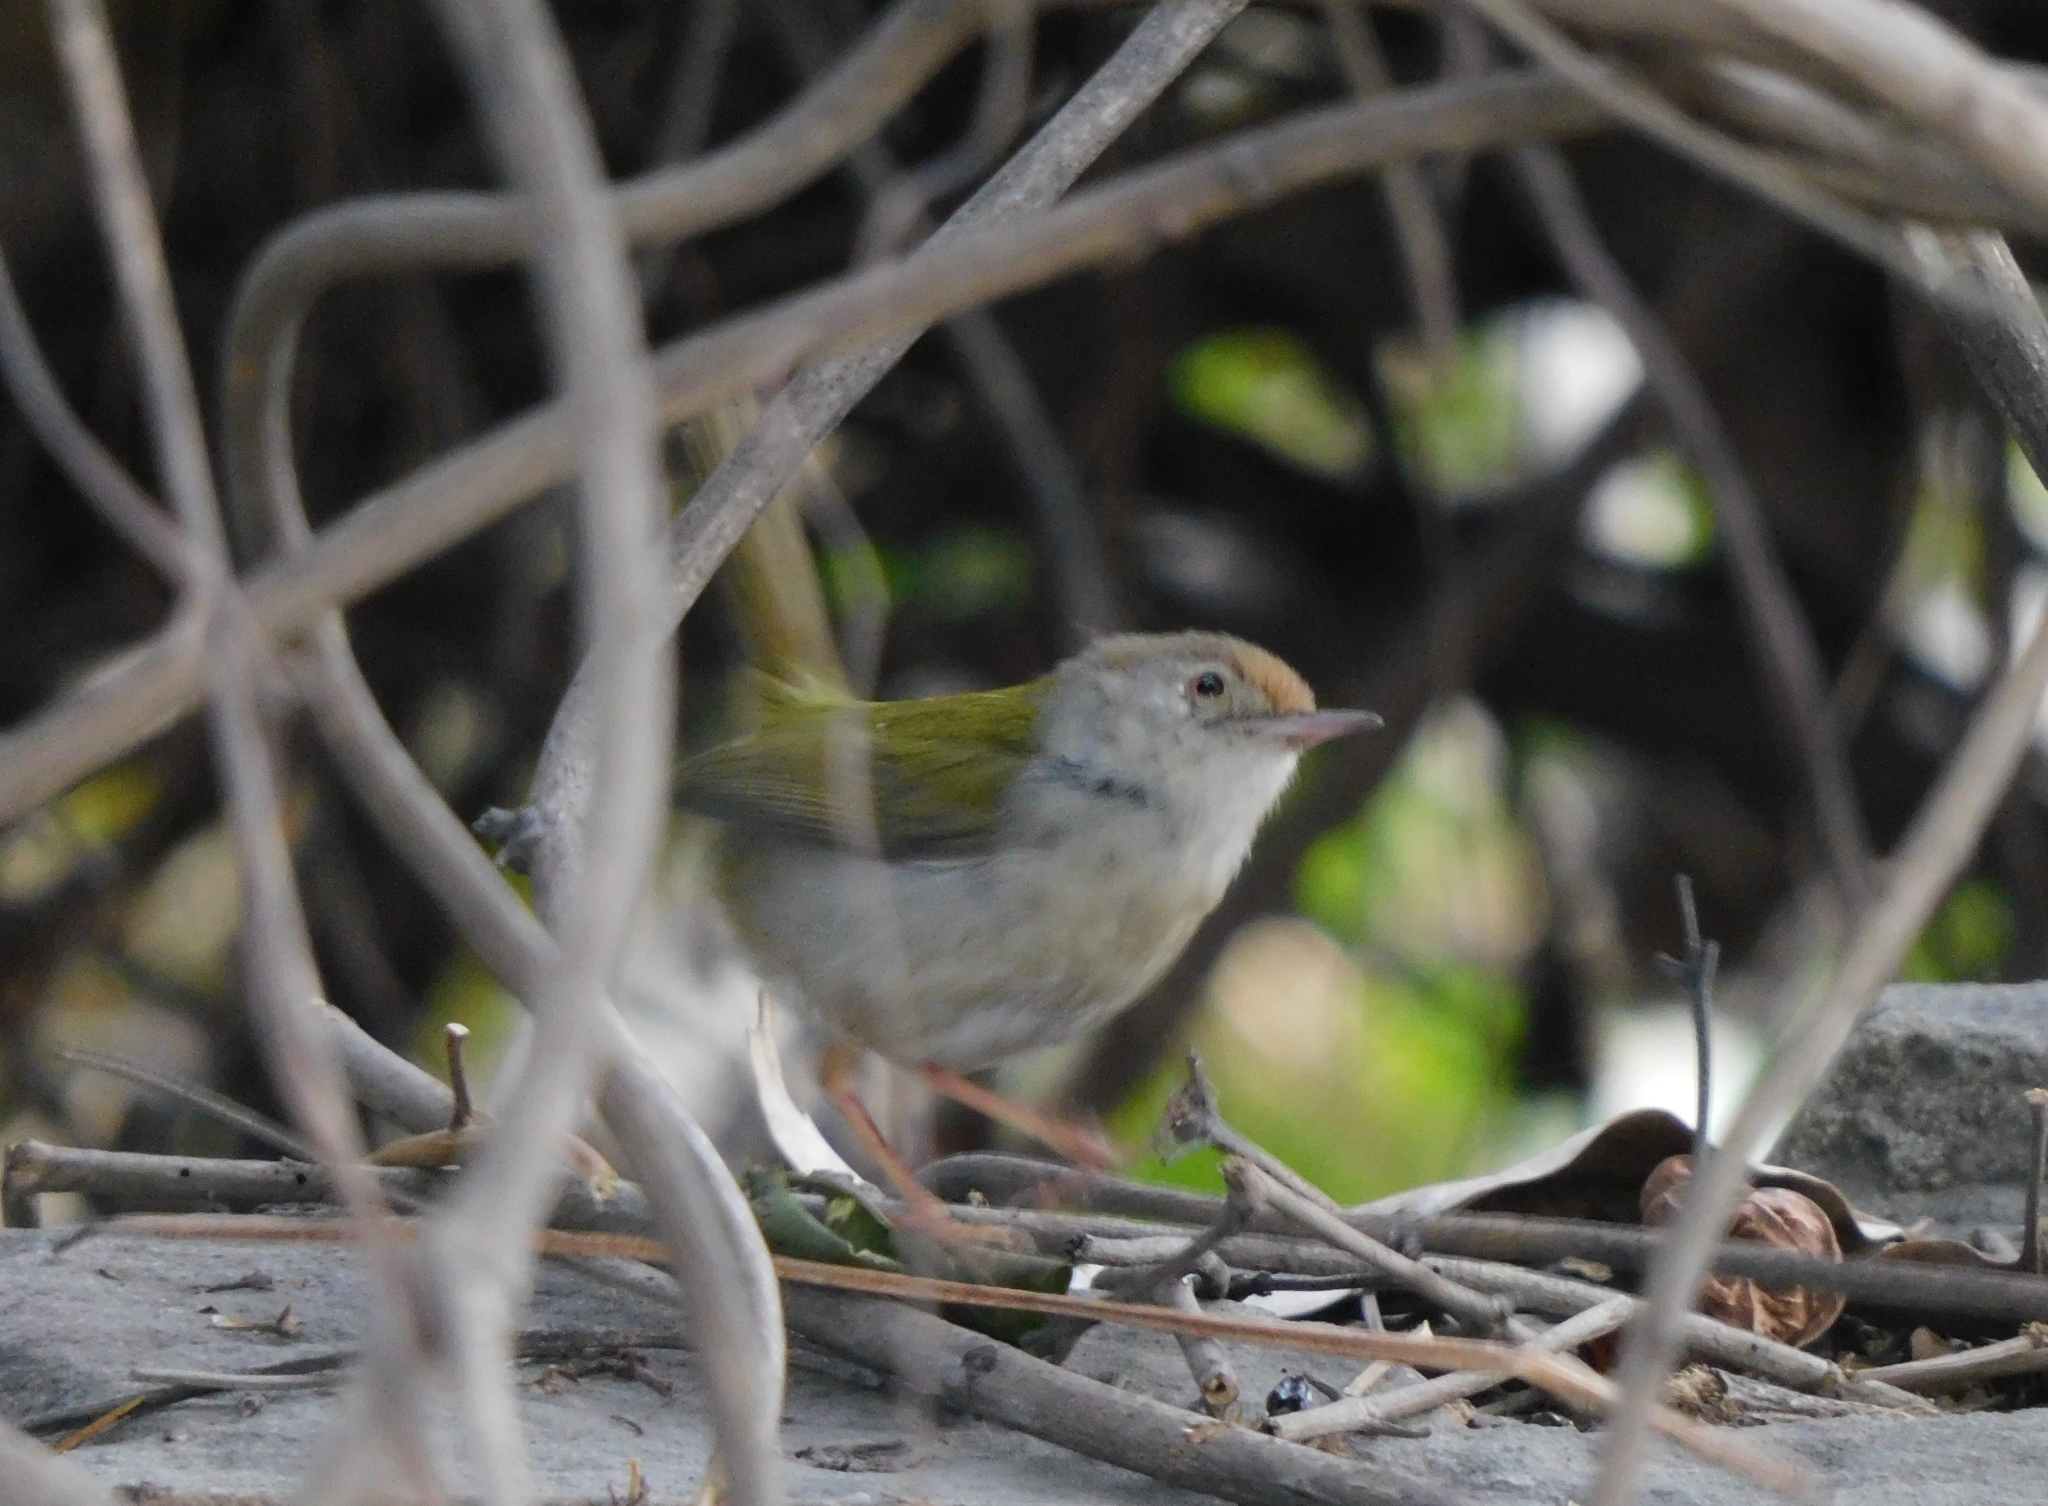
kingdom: Animalia
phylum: Chordata
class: Aves
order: Passeriformes
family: Cisticolidae
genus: Orthotomus
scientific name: Orthotomus sutorius
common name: Common tailorbird
